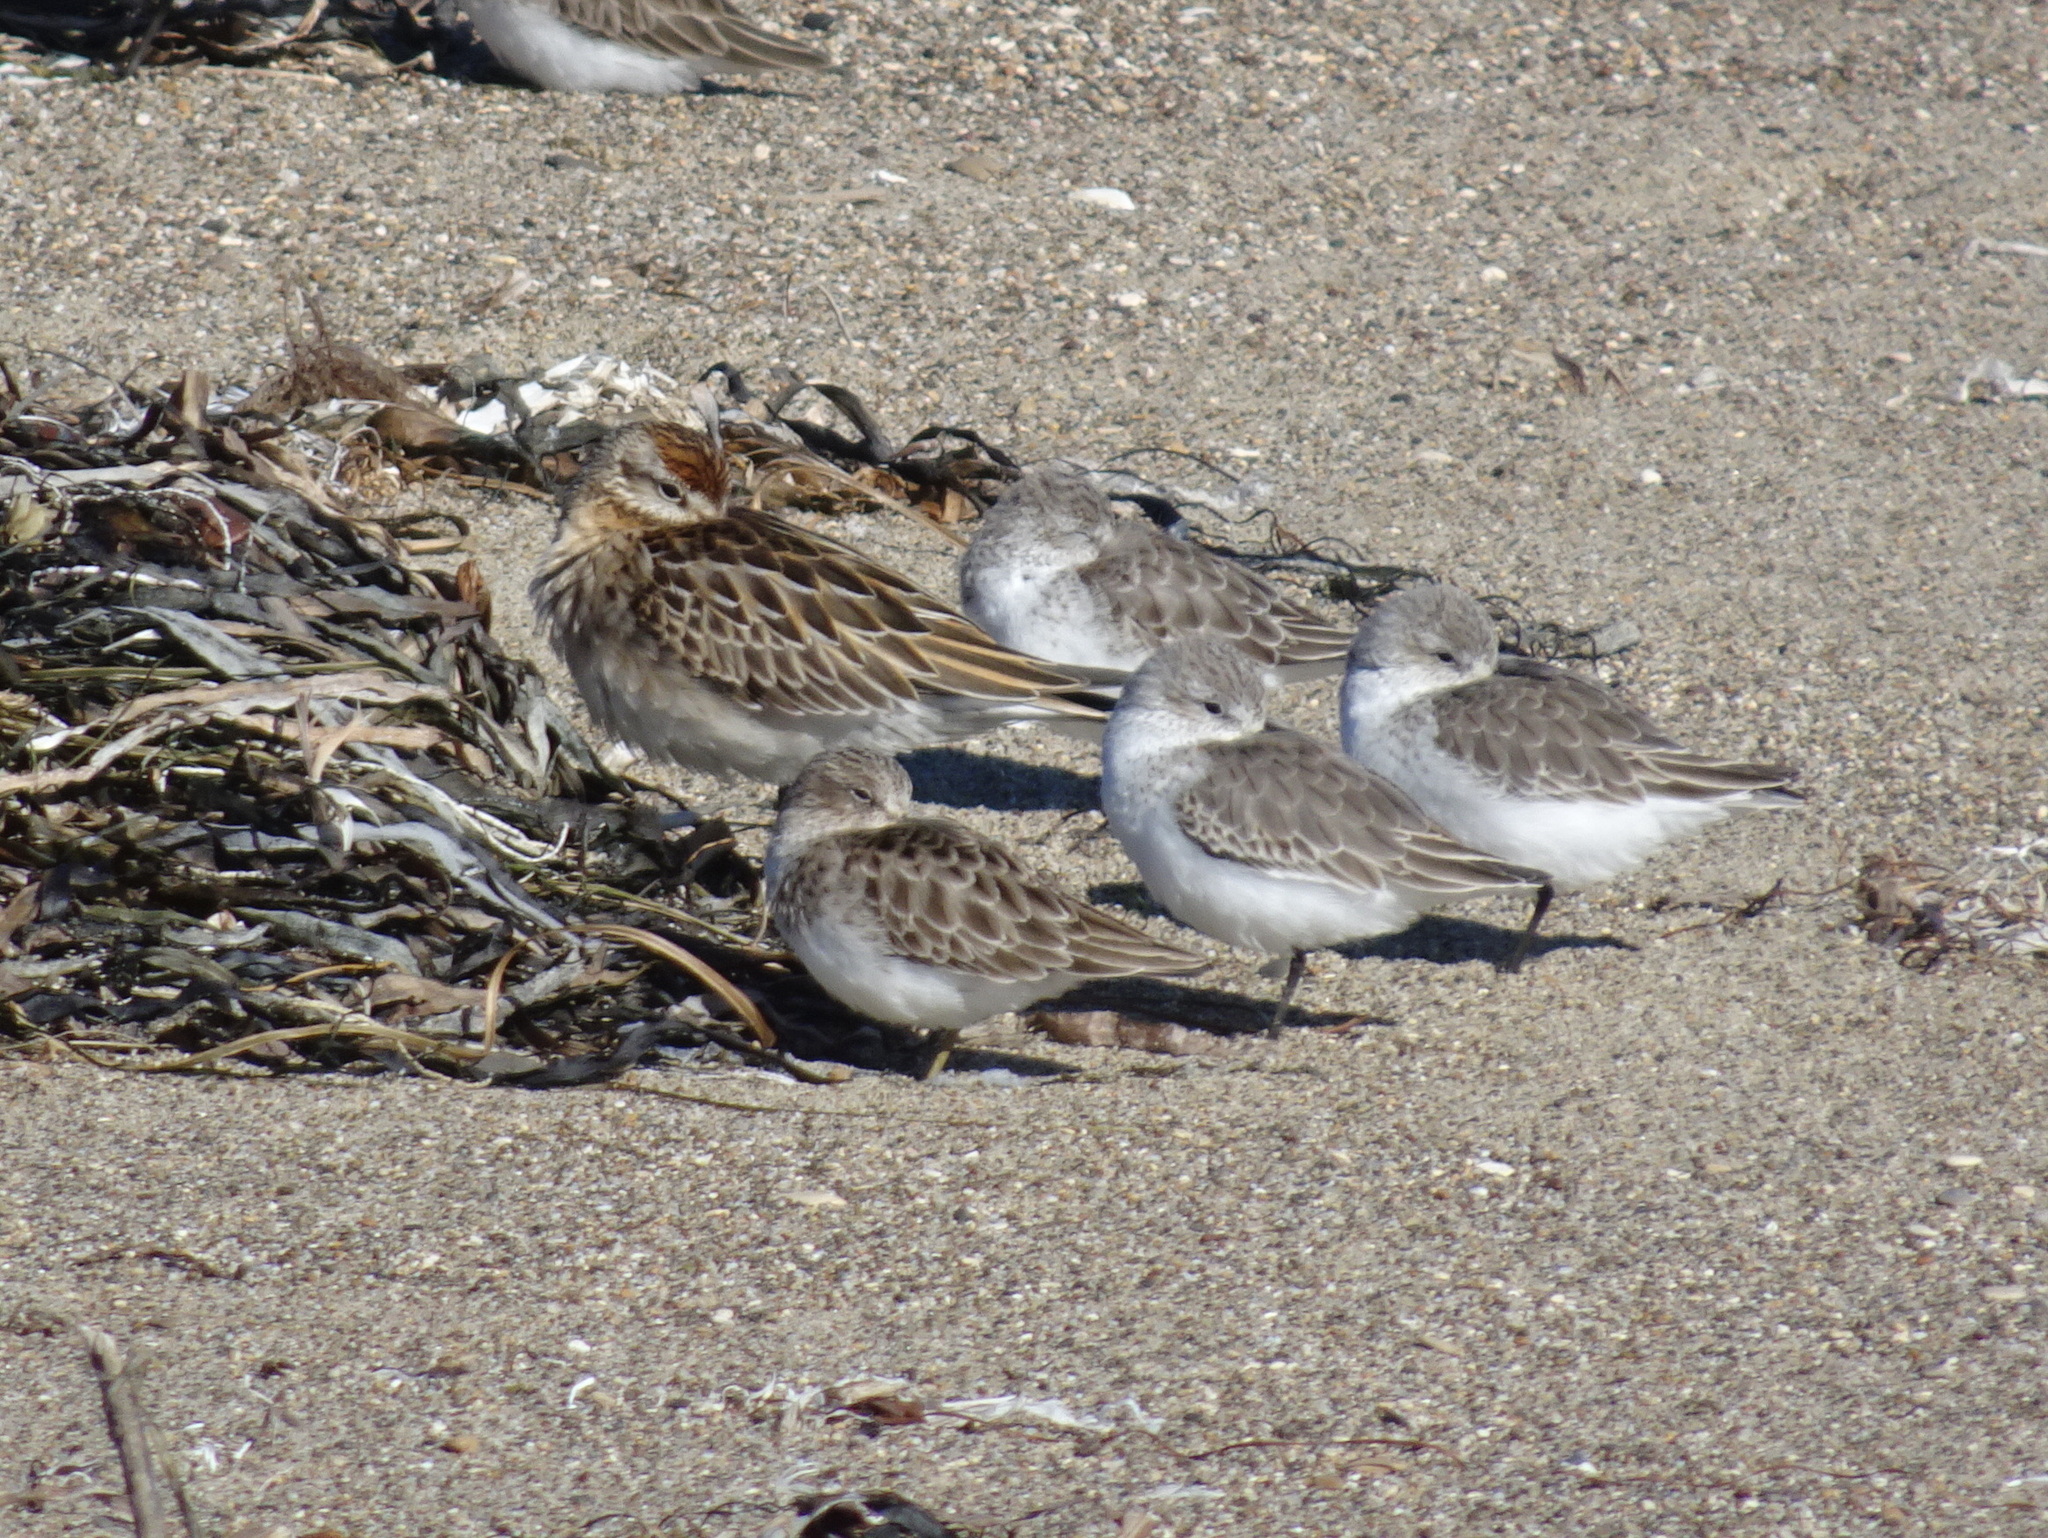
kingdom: Animalia
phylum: Chordata
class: Aves
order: Charadriiformes
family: Scolopacidae
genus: Calidris
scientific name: Calidris acuminata
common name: Sharp-tailed sandpiper
